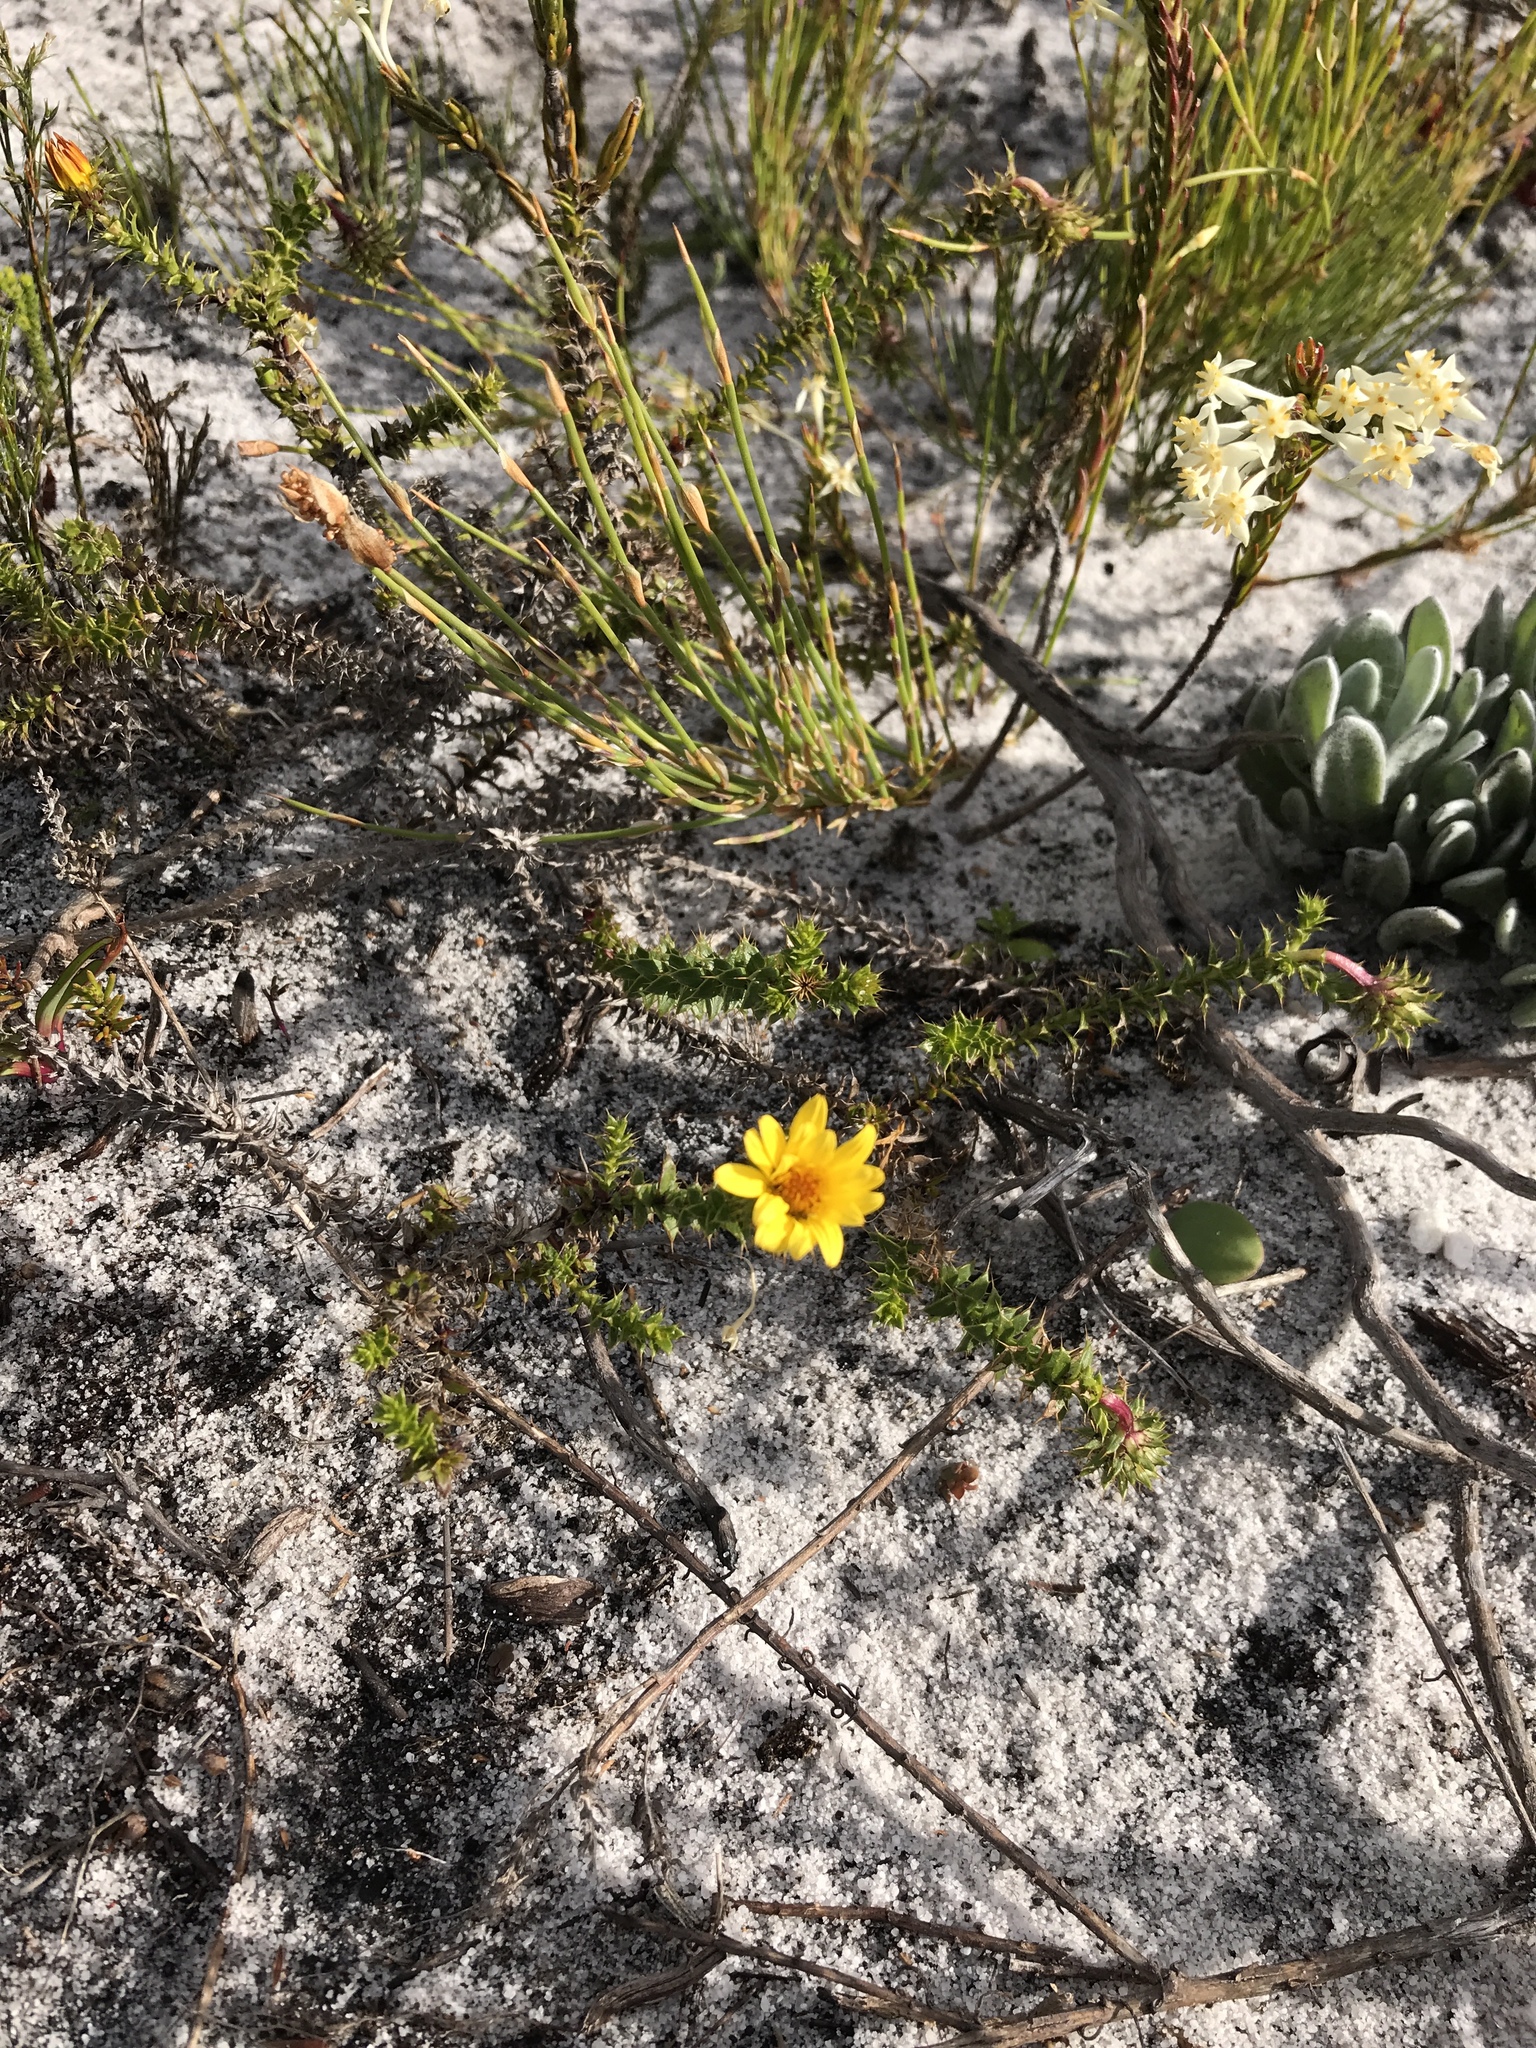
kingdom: Plantae
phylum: Tracheophyta
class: Magnoliopsida
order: Asterales
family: Asteraceae
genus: Cullumia
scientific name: Cullumia setosa
